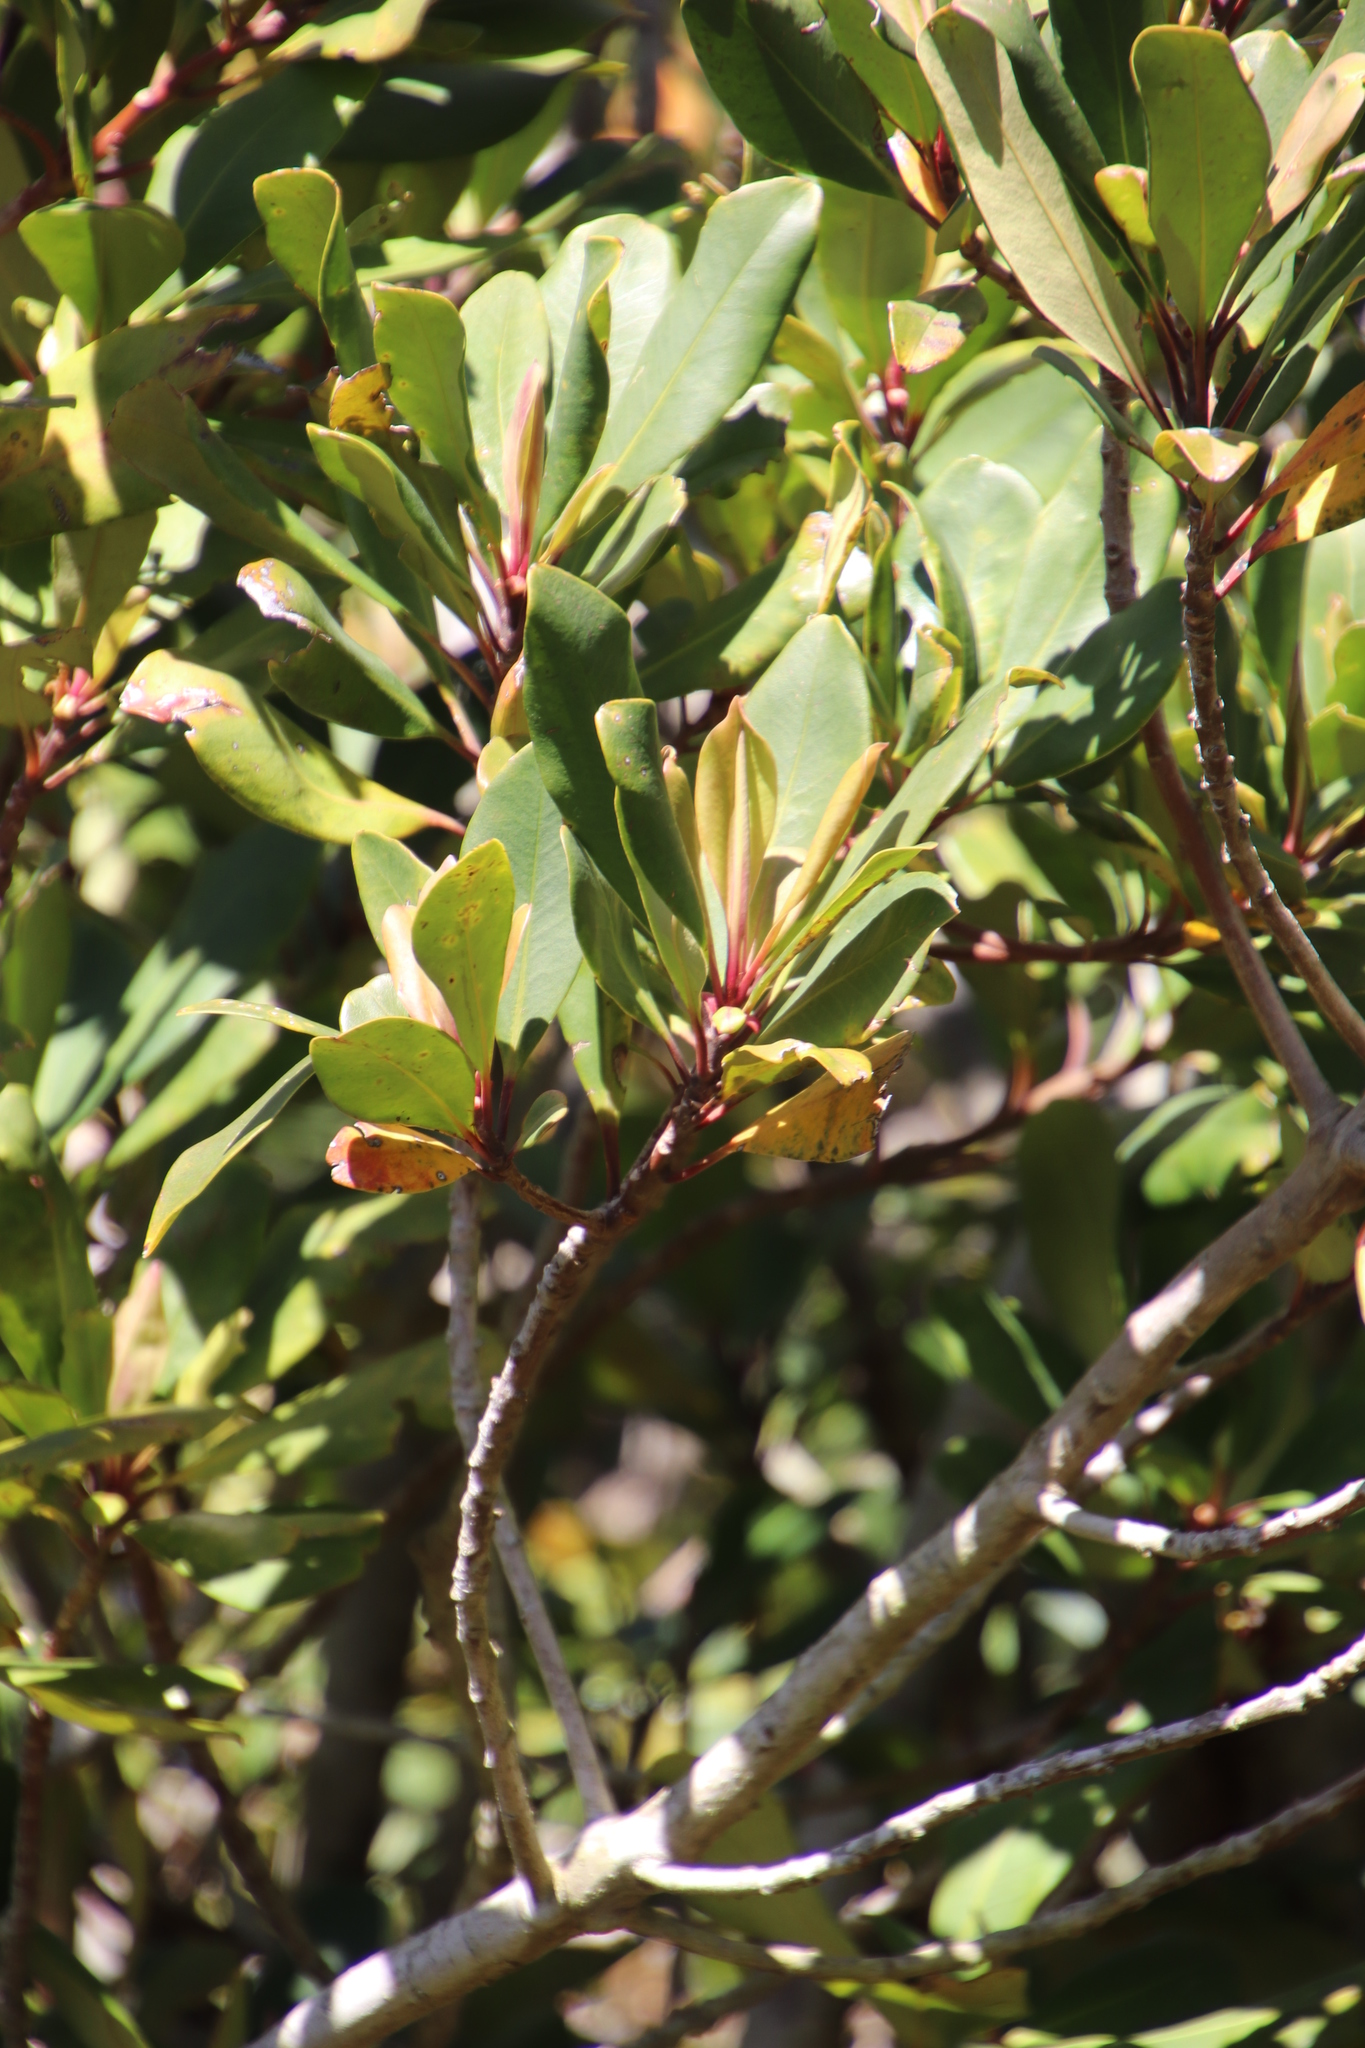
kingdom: Plantae
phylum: Tracheophyta
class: Magnoliopsida
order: Ericales
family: Primulaceae
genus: Myrsine
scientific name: Myrsine melanophloeos
